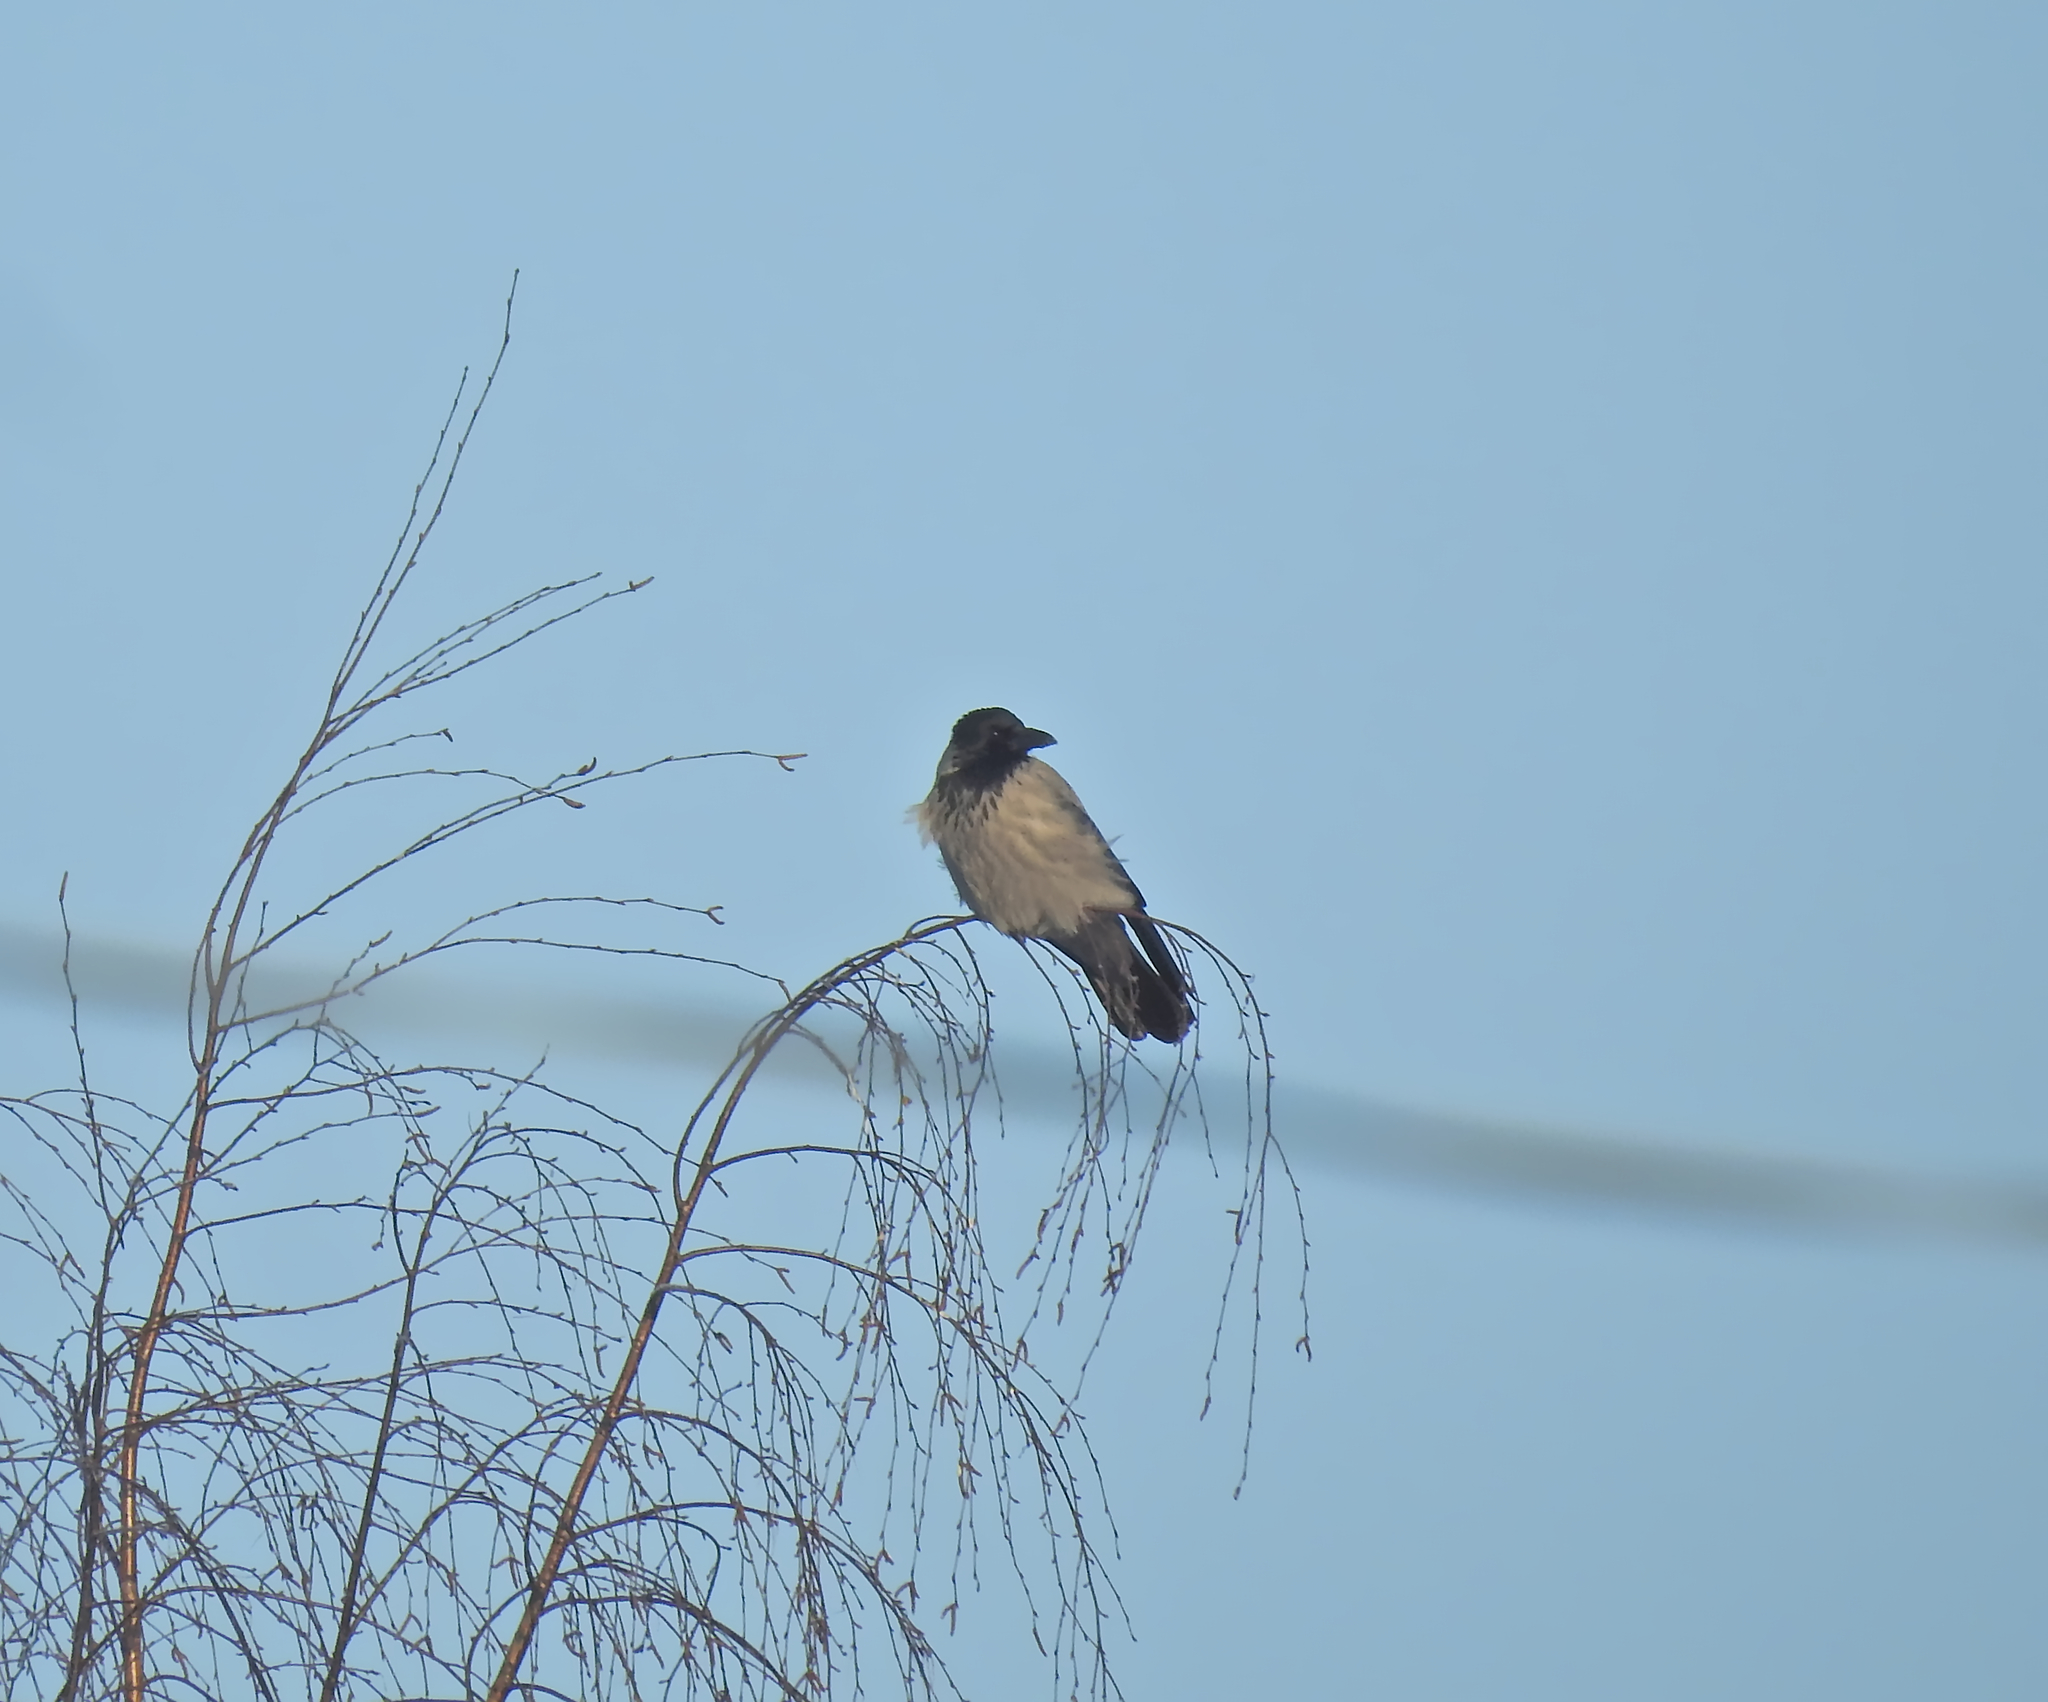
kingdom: Animalia
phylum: Chordata
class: Aves
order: Passeriformes
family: Corvidae
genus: Corvus
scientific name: Corvus cornix
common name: Hooded crow
